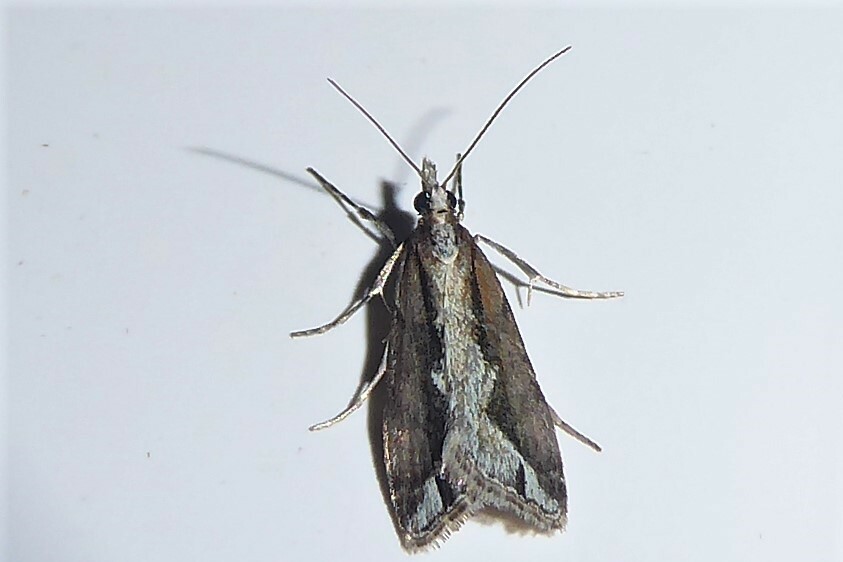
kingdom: Animalia
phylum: Arthropoda
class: Insecta
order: Lepidoptera
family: Crambidae
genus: Eudonia
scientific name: Eudonia steropaea
